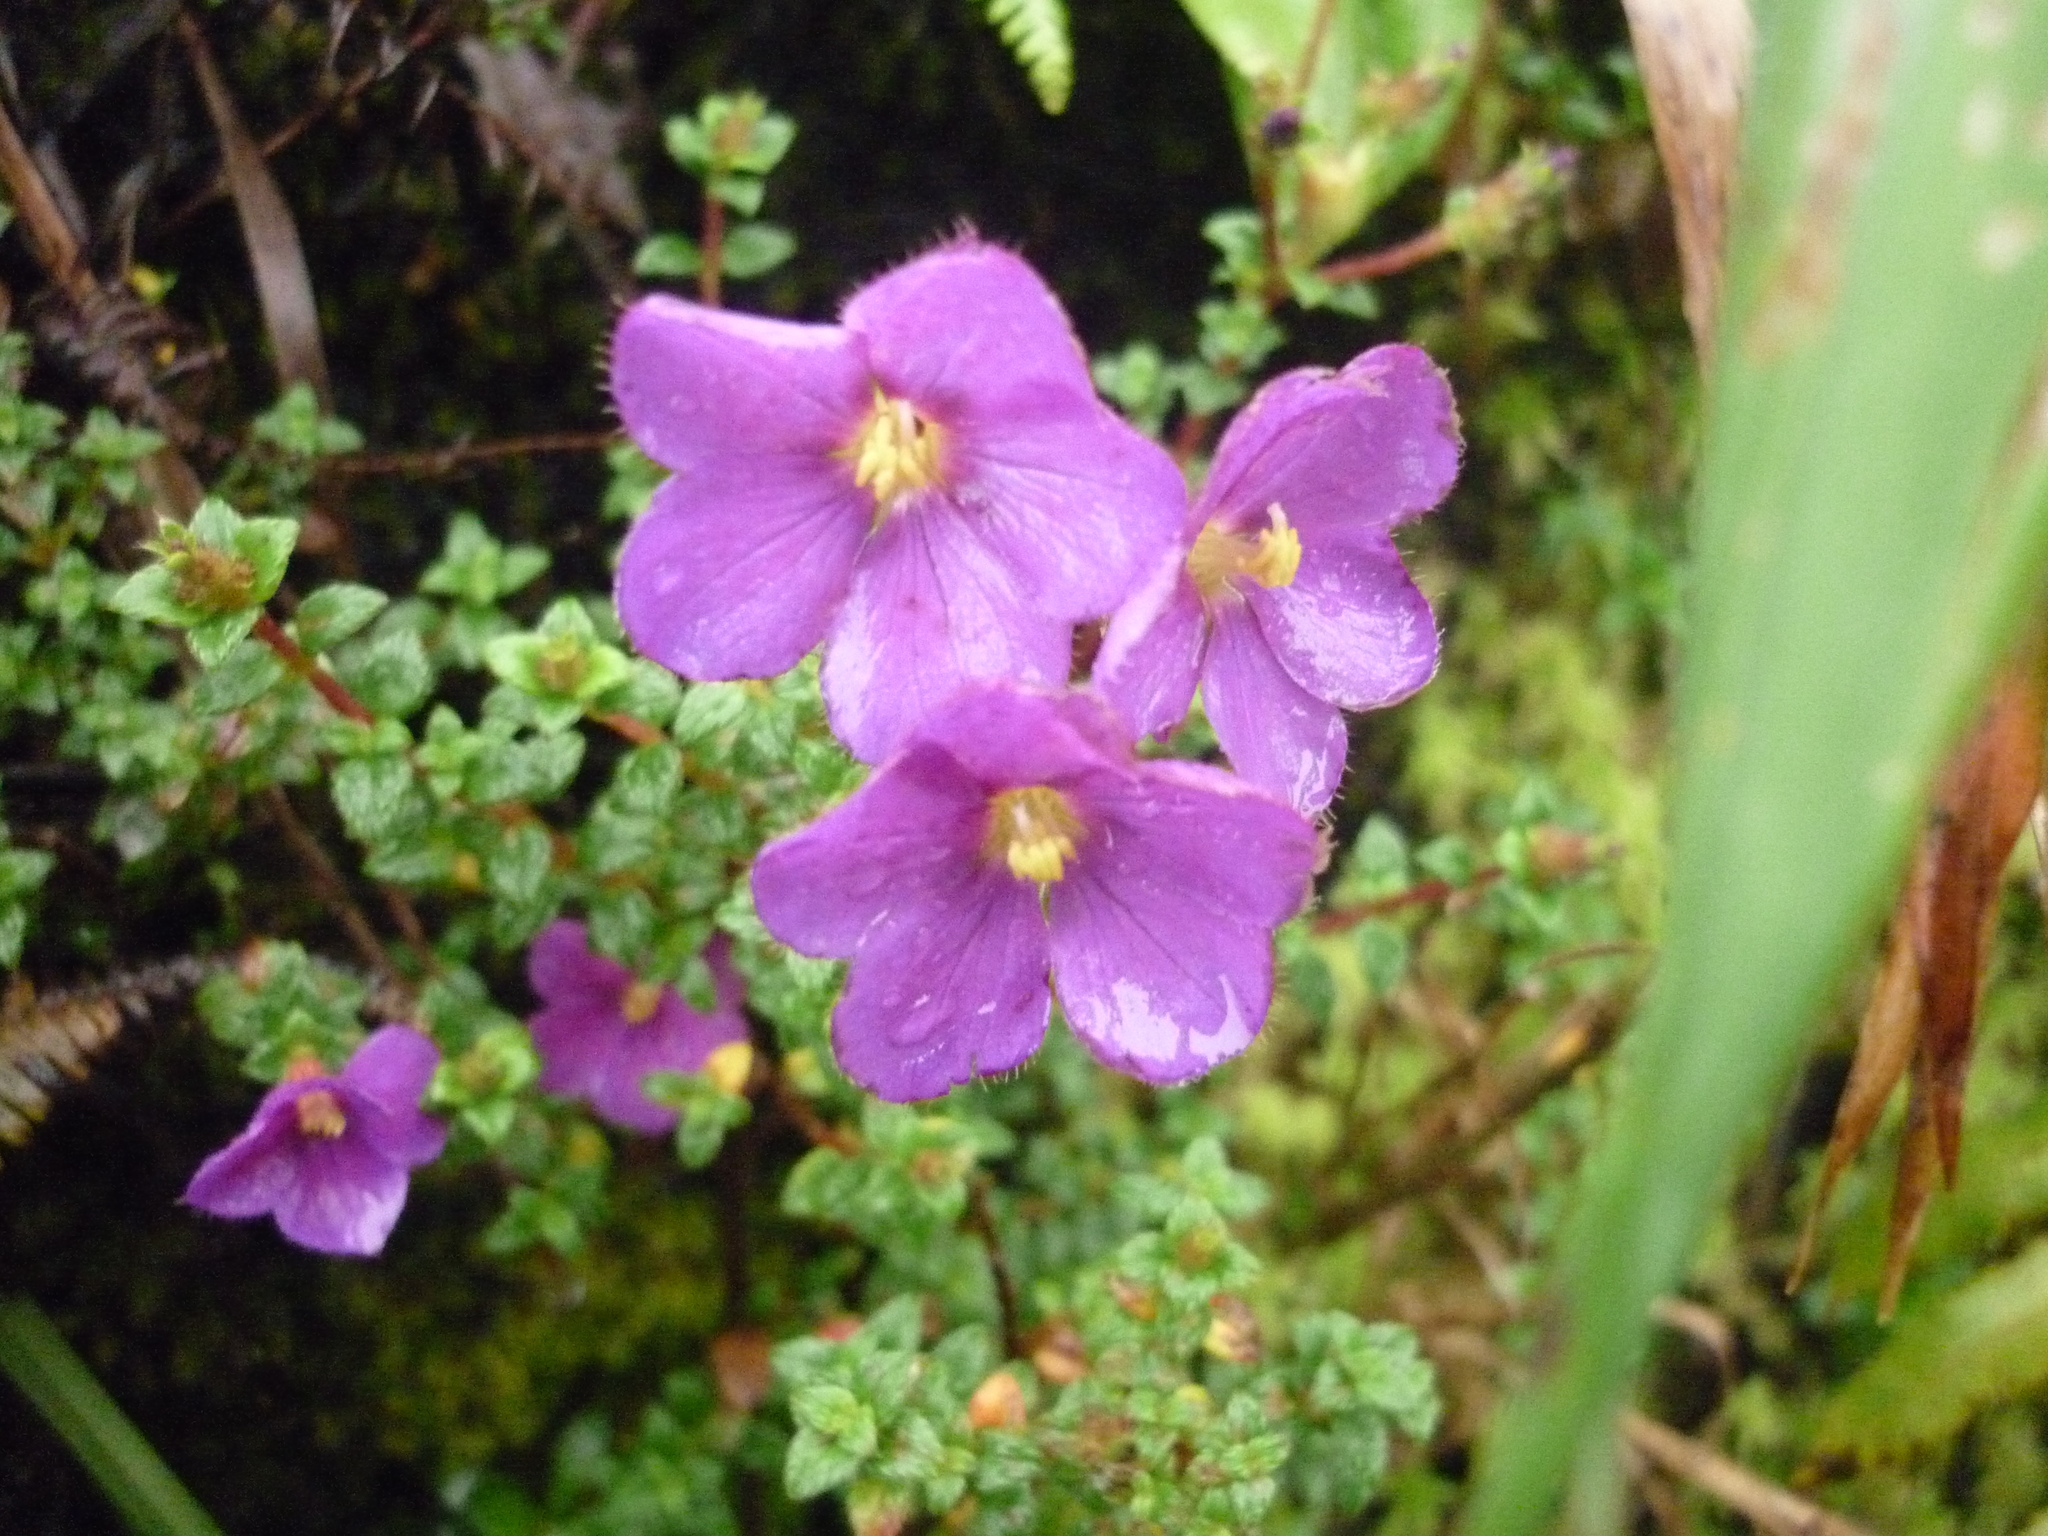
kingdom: Plantae
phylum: Tracheophyta
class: Magnoliopsida
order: Myrtales
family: Melastomataceae
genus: Chaetogastra
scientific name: Chaetogastra ornata
